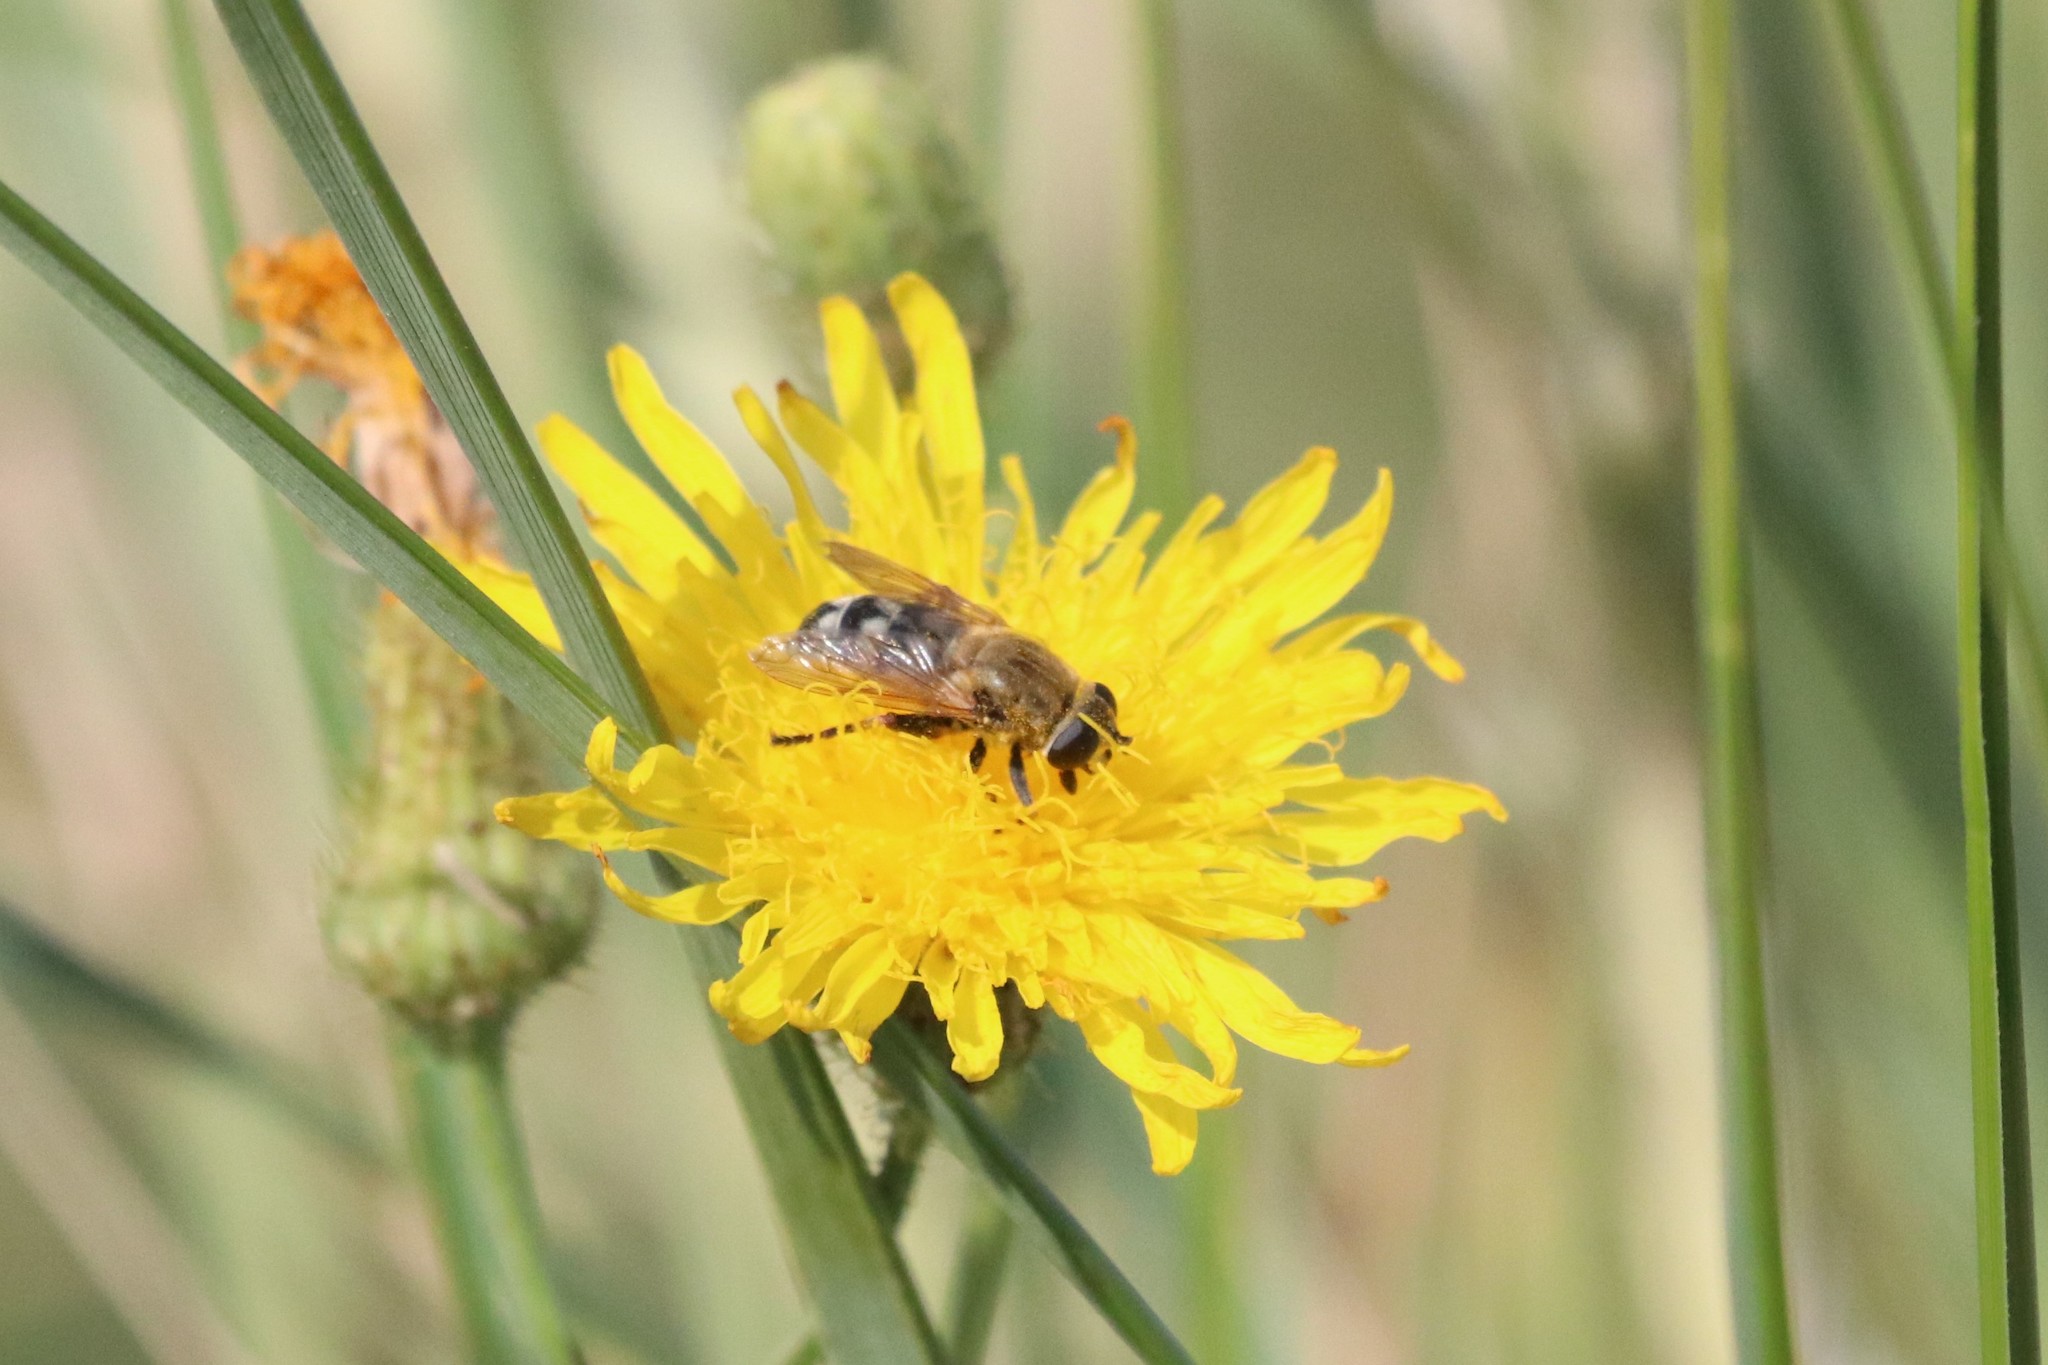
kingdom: Animalia
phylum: Arthropoda
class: Insecta
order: Diptera
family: Syrphidae
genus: Polydontomyia
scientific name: Polydontomyia curvipes
